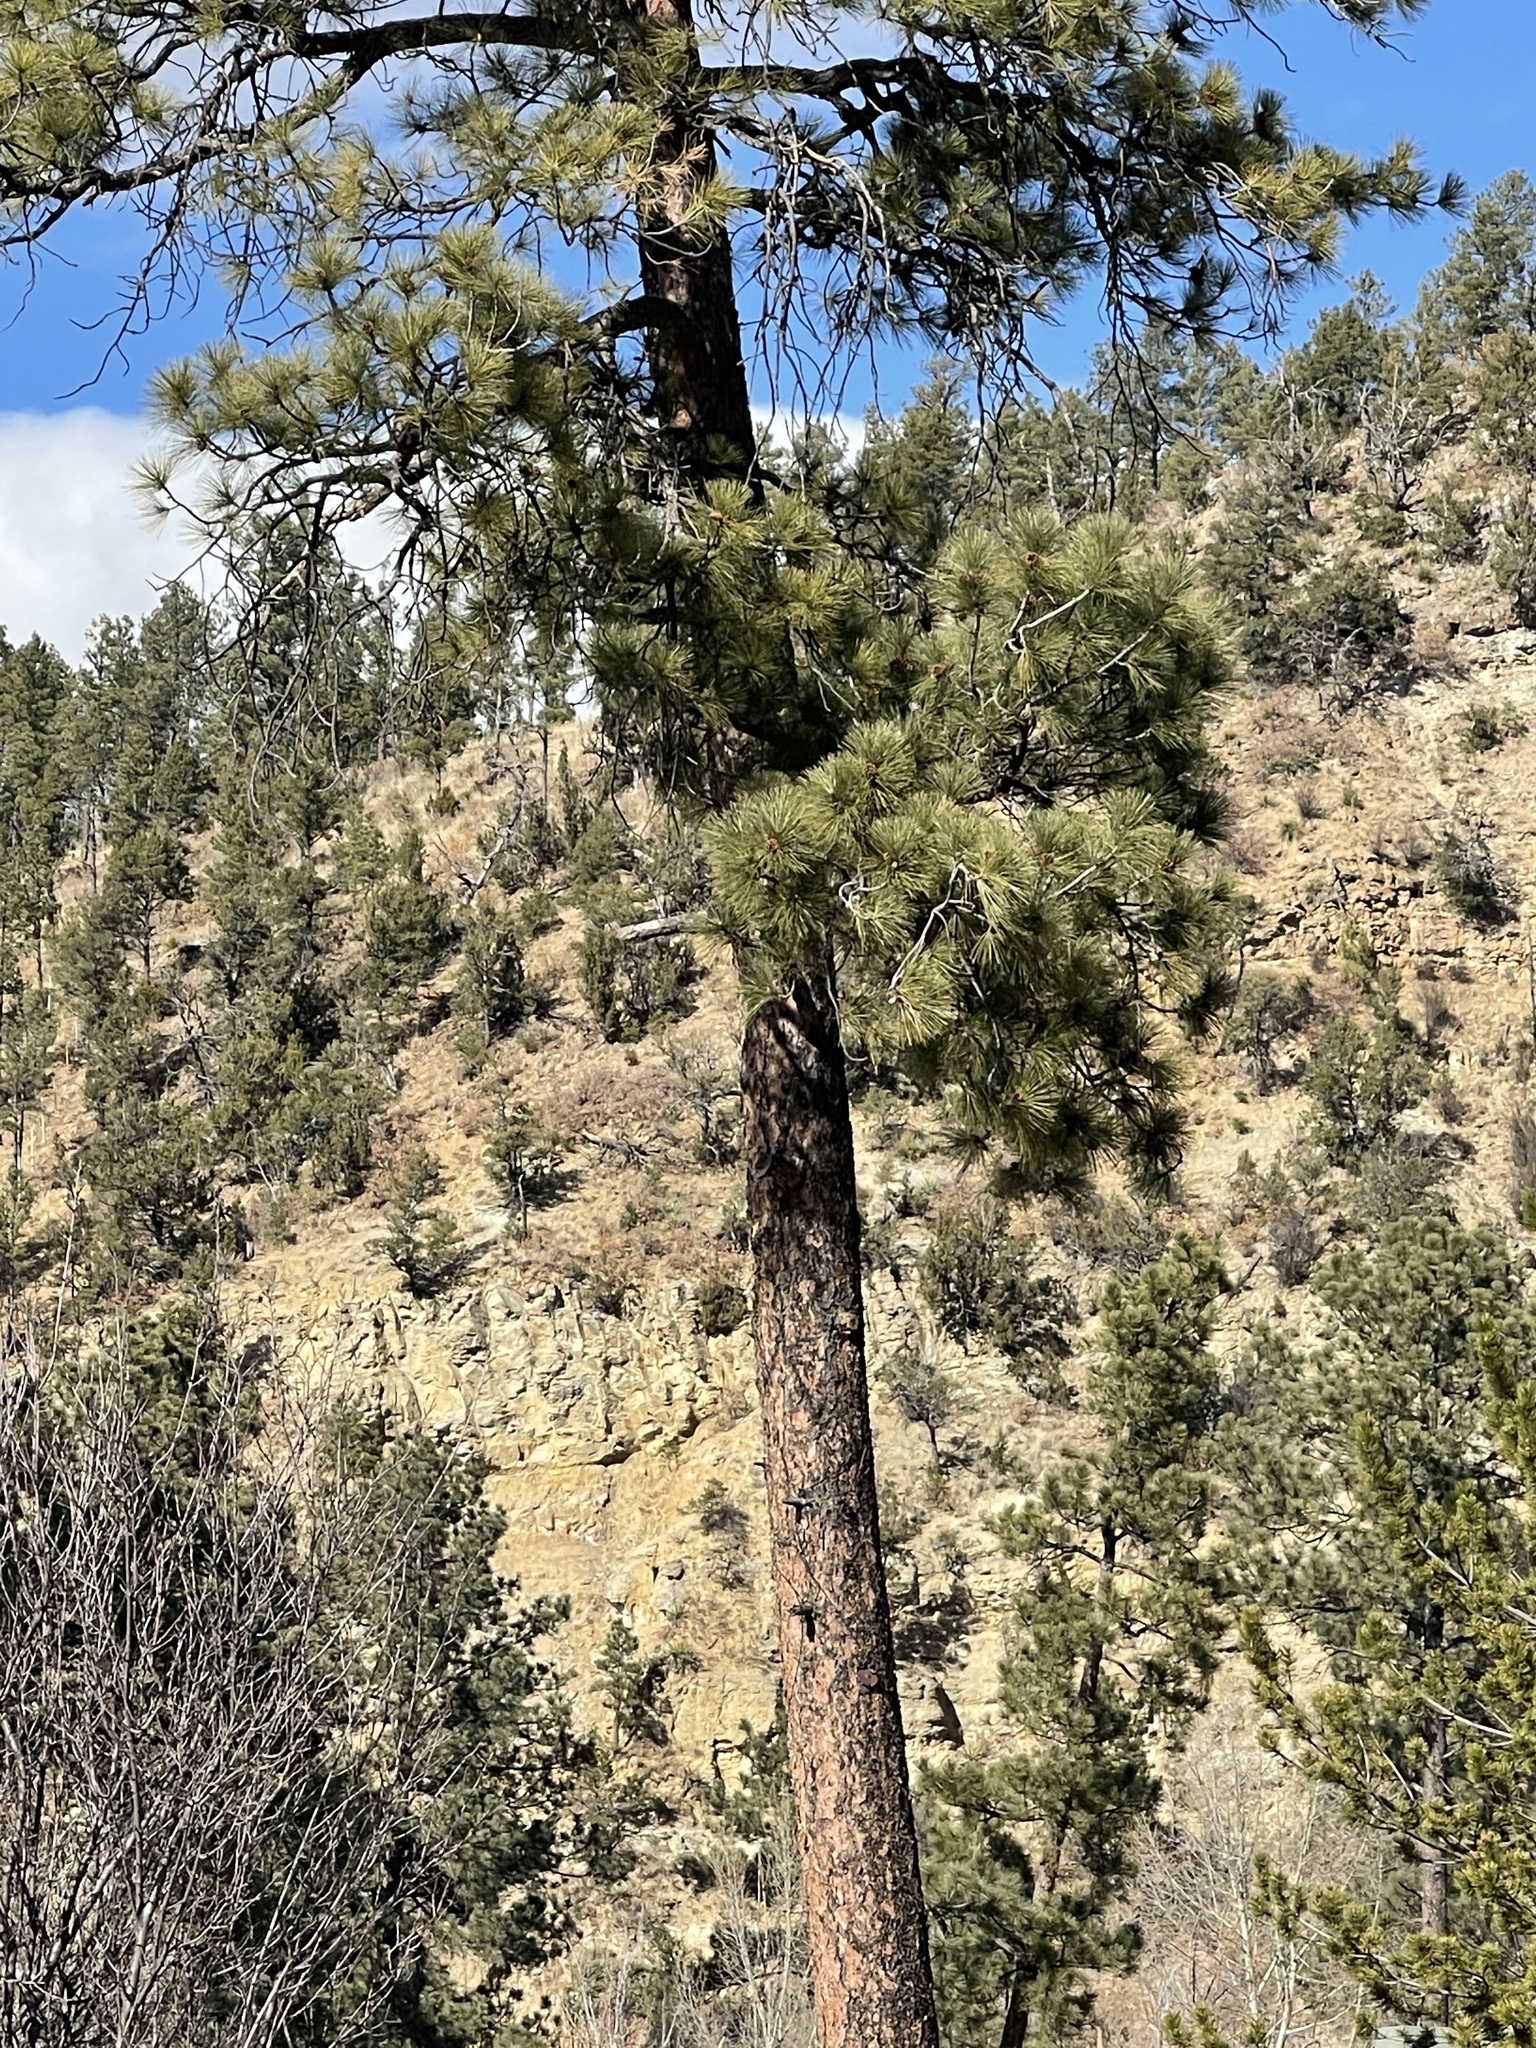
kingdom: Plantae
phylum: Tracheophyta
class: Pinopsida
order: Pinales
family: Pinaceae
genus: Pinus
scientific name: Pinus ponderosa
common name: Western yellow-pine
